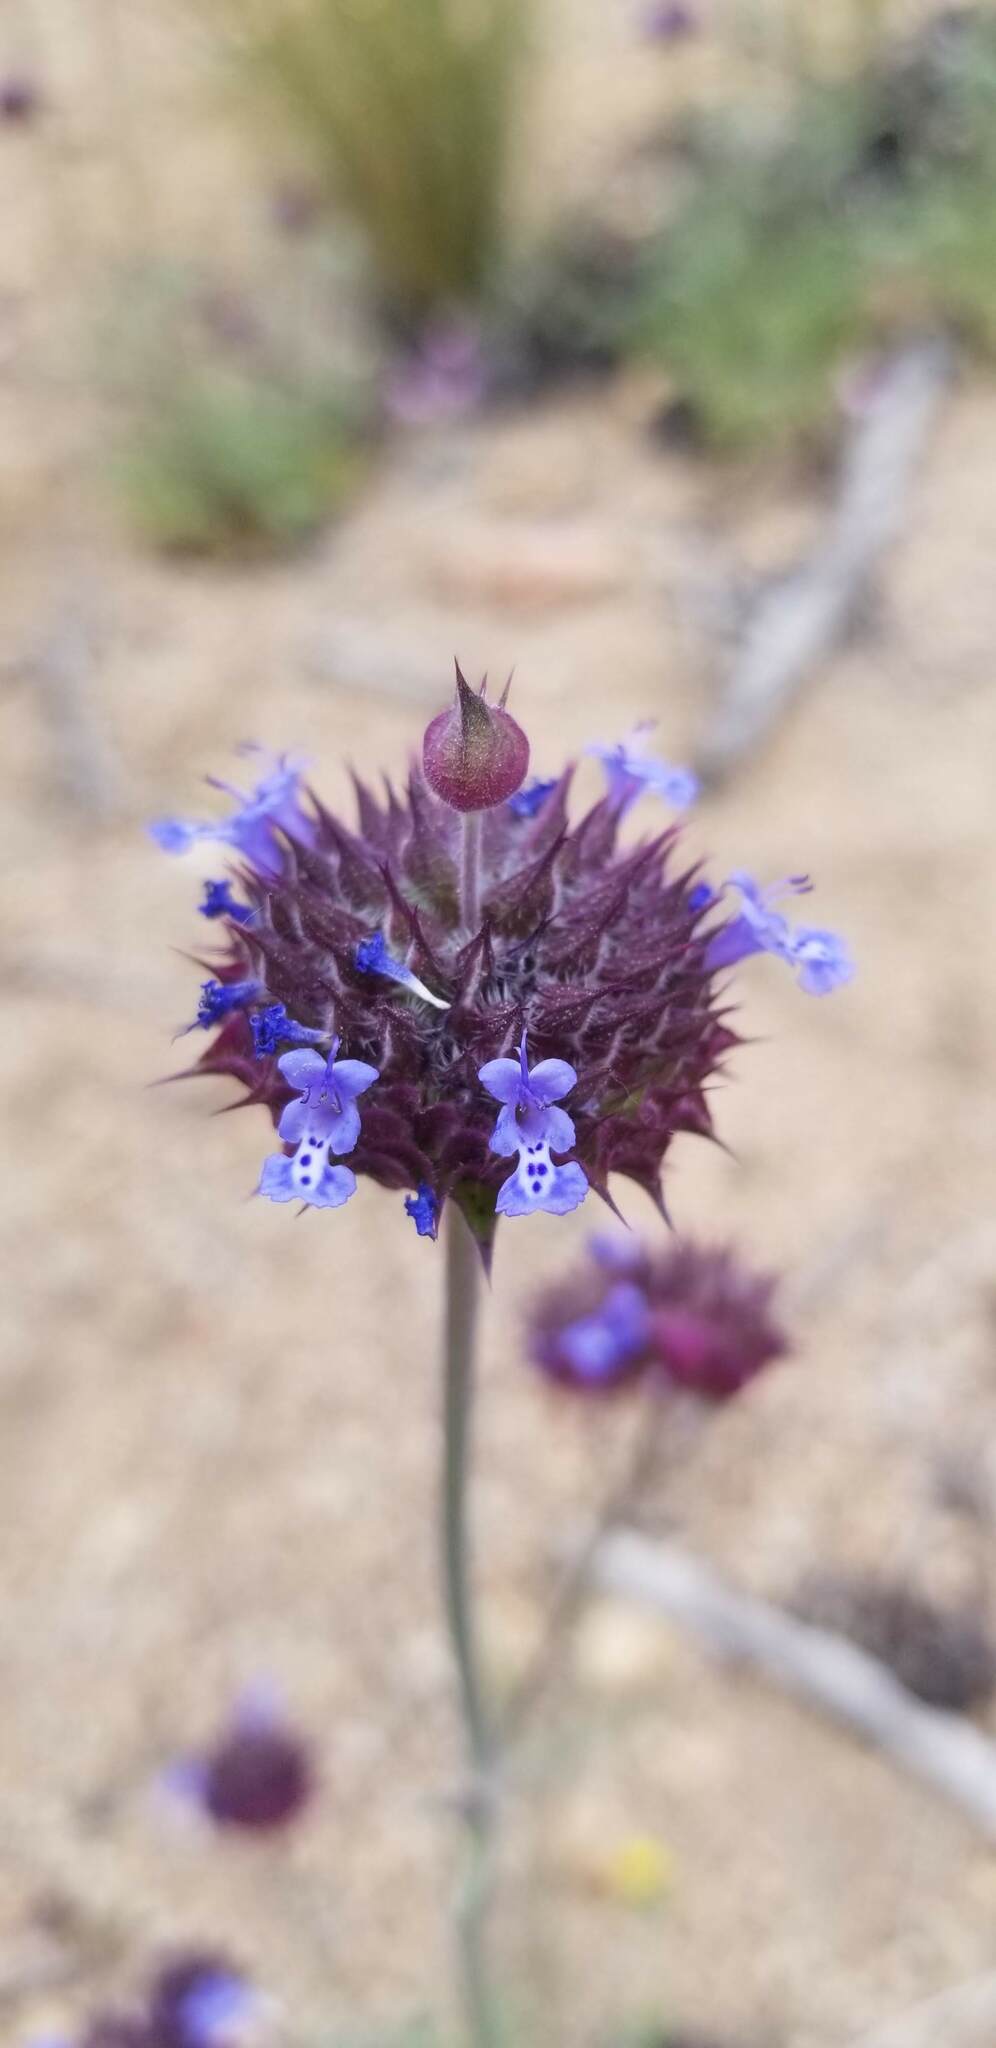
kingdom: Plantae
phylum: Tracheophyta
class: Magnoliopsida
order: Lamiales
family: Lamiaceae
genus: Salvia
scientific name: Salvia columbariae
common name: Chia
